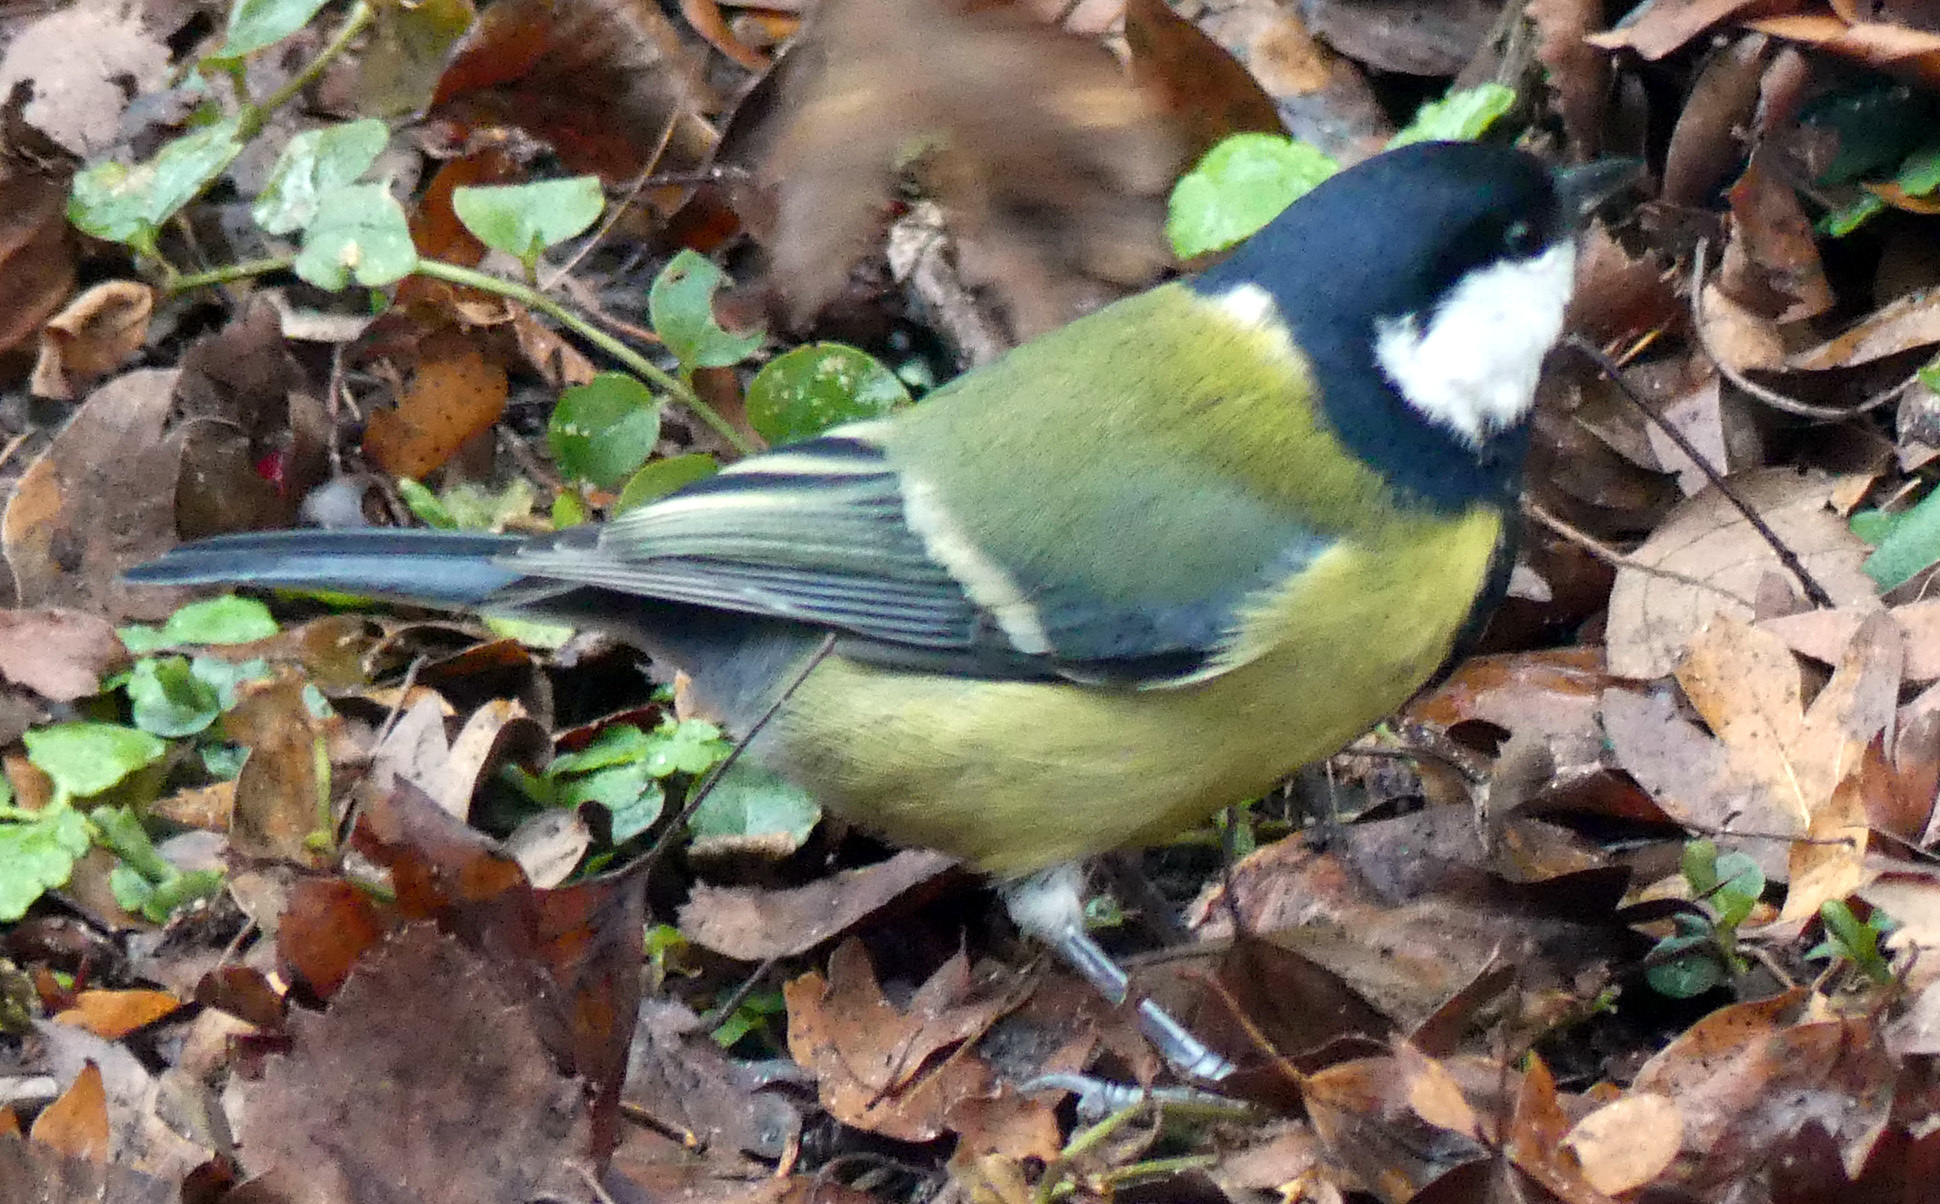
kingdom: Animalia
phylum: Chordata
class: Aves
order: Passeriformes
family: Paridae
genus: Parus
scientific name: Parus major
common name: Great tit
